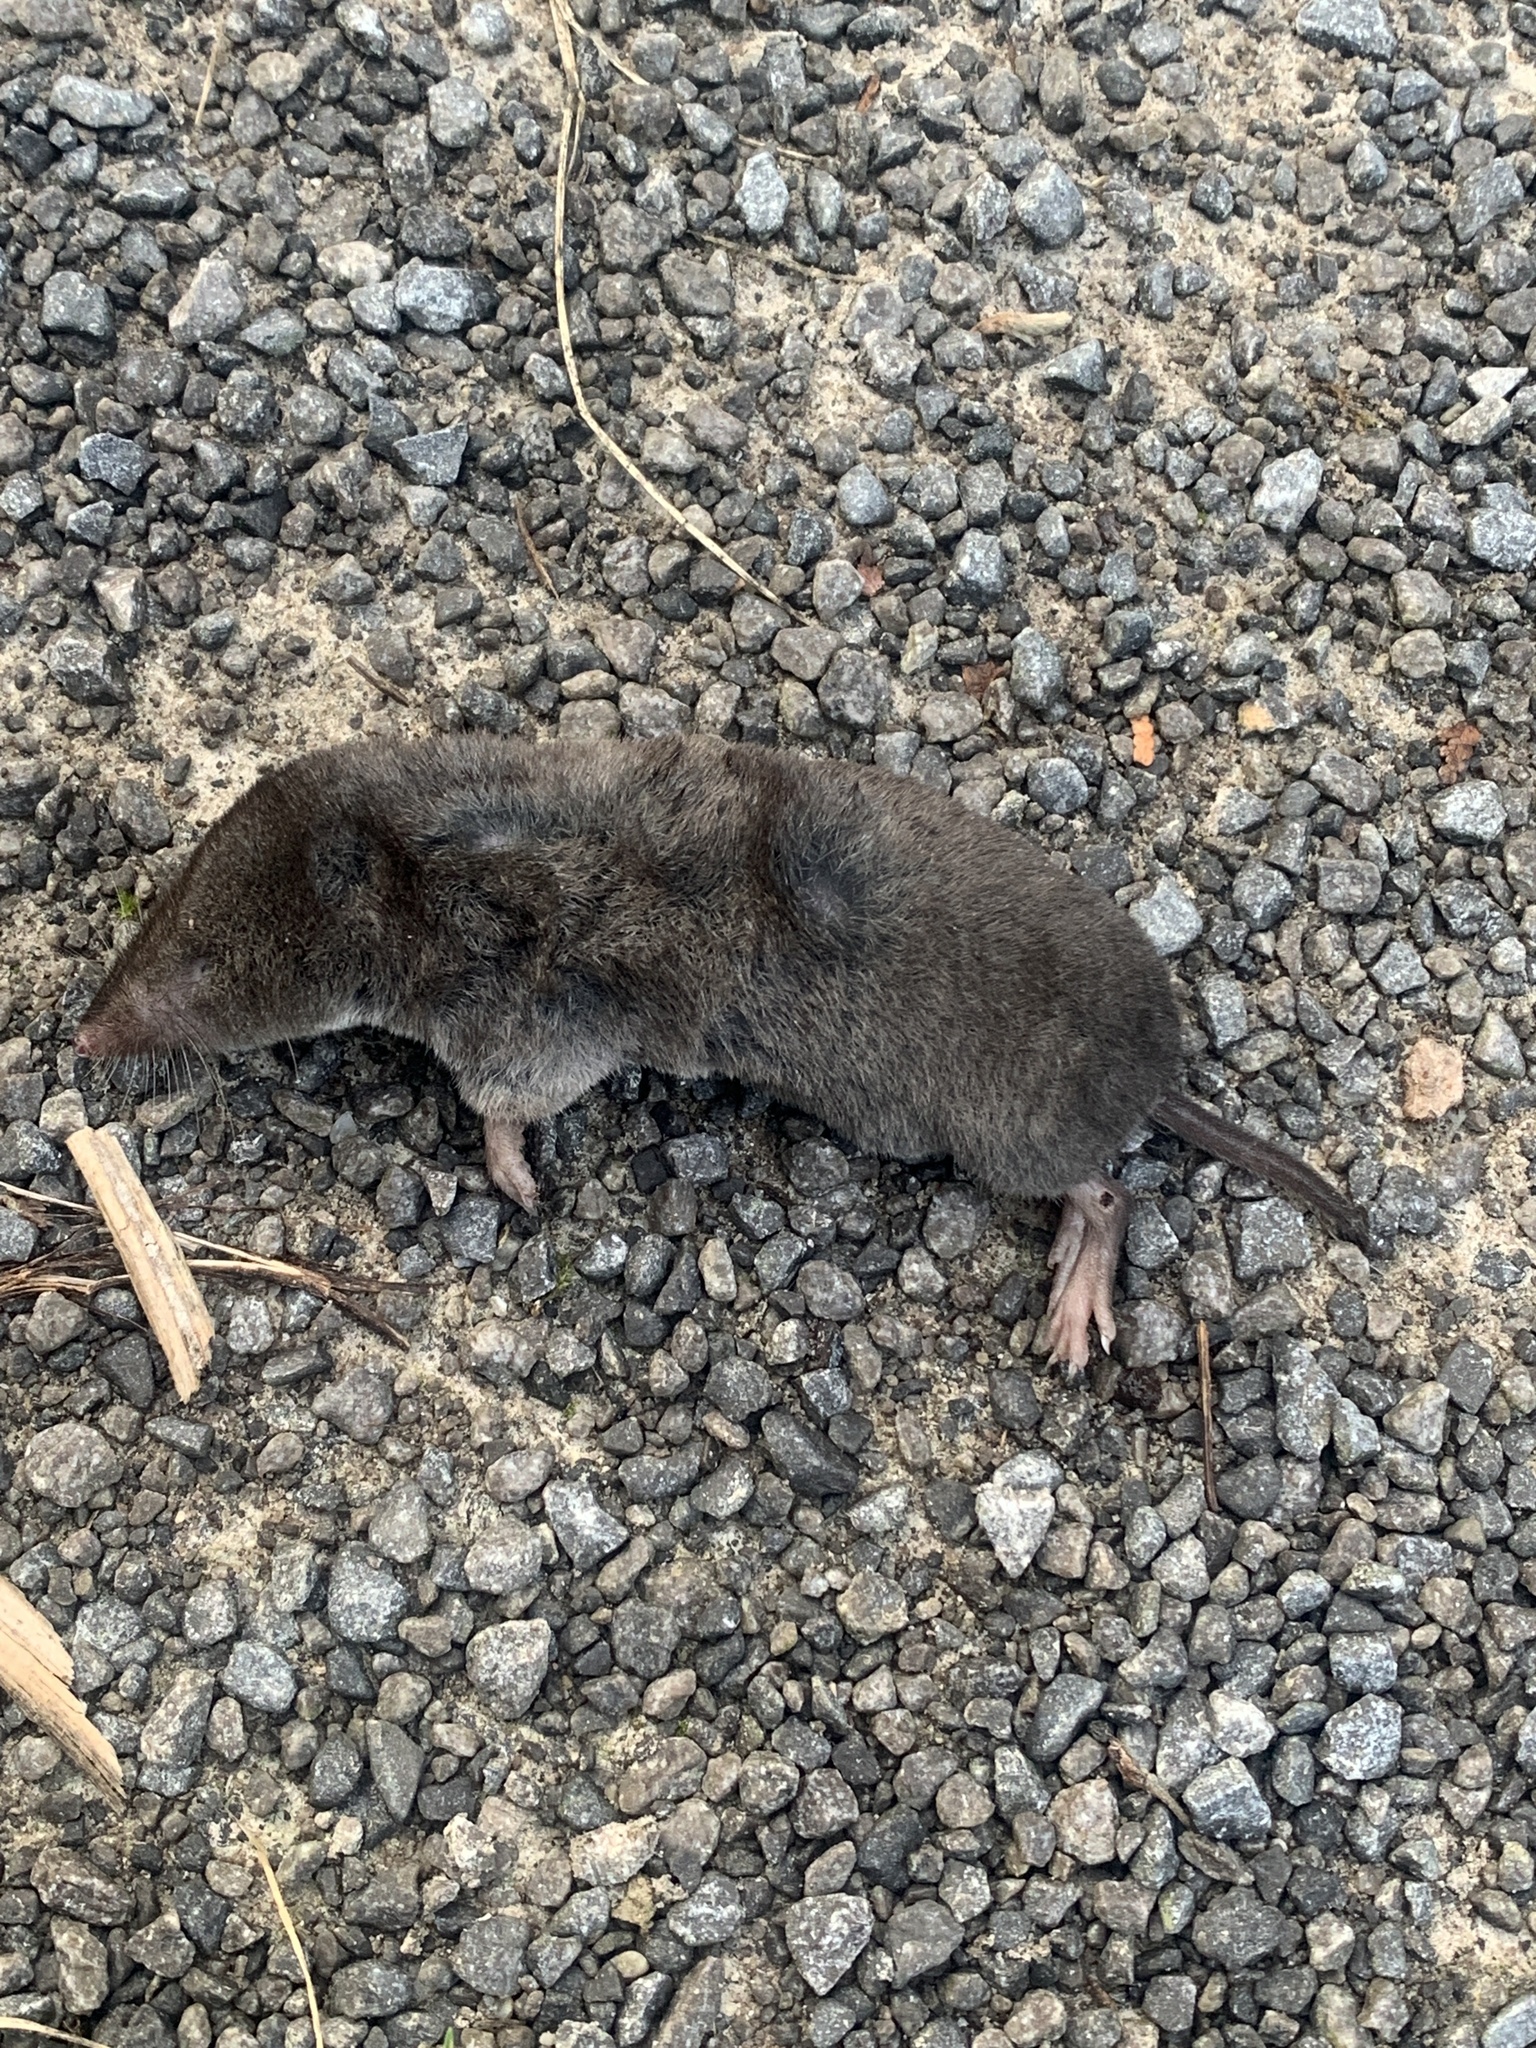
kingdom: Animalia
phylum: Chordata
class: Mammalia
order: Soricomorpha
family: Soricidae
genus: Blarina
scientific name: Blarina brevicauda
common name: Northern short-tailed shrew
